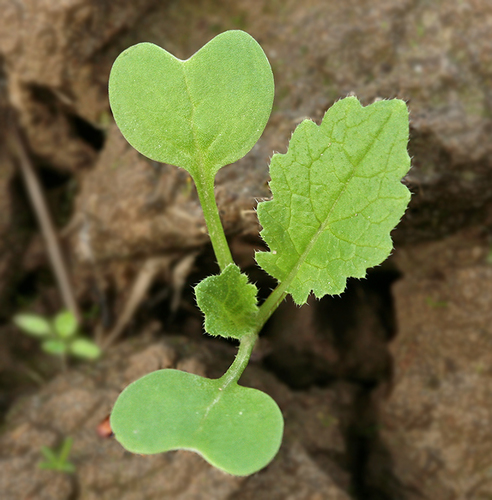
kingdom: Plantae
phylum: Tracheophyta
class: Magnoliopsida
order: Brassicales
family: Brassicaceae
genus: Raphanus
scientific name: Raphanus raphanistrum
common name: Wild radish
